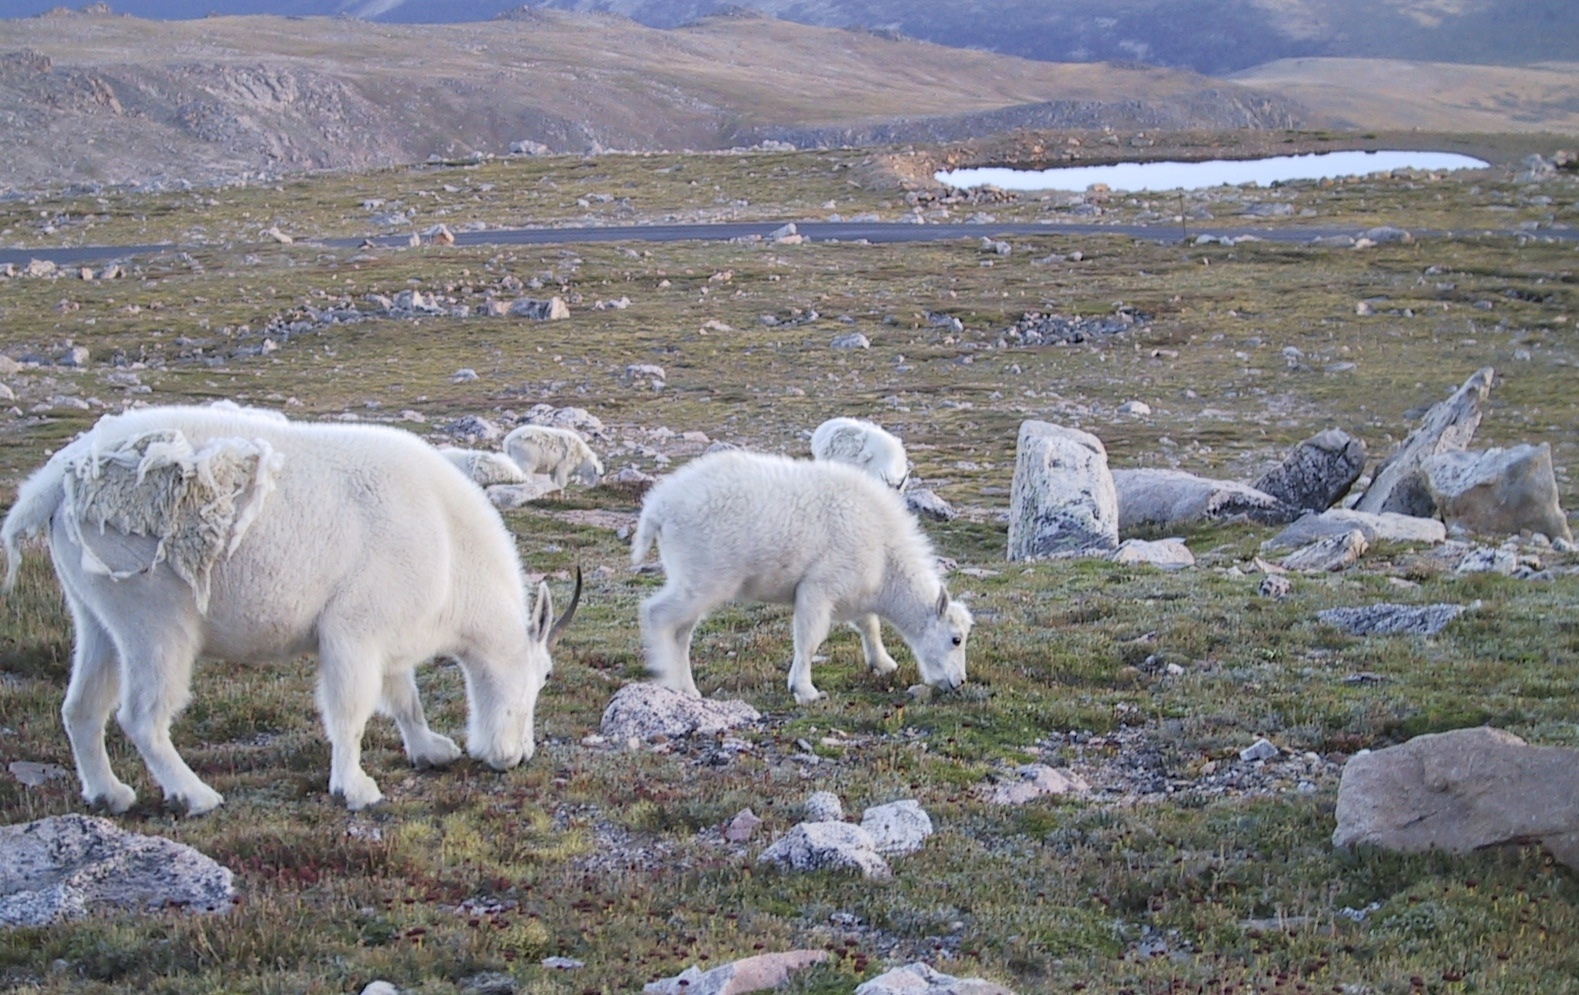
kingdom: Animalia
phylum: Chordata
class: Mammalia
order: Artiodactyla
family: Bovidae
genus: Oreamnos
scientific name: Oreamnos americanus
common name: Mountain goat
